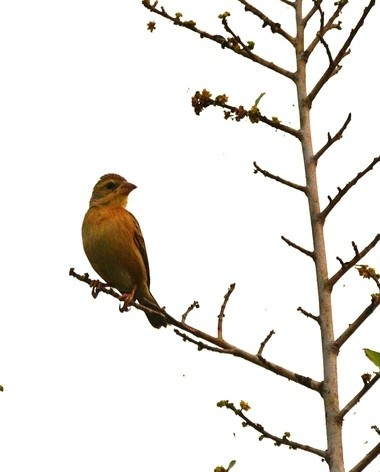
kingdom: Animalia
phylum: Chordata
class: Aves
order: Passeriformes
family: Ploceidae
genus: Ploceus
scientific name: Ploceus philippinus
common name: Baya weaver
